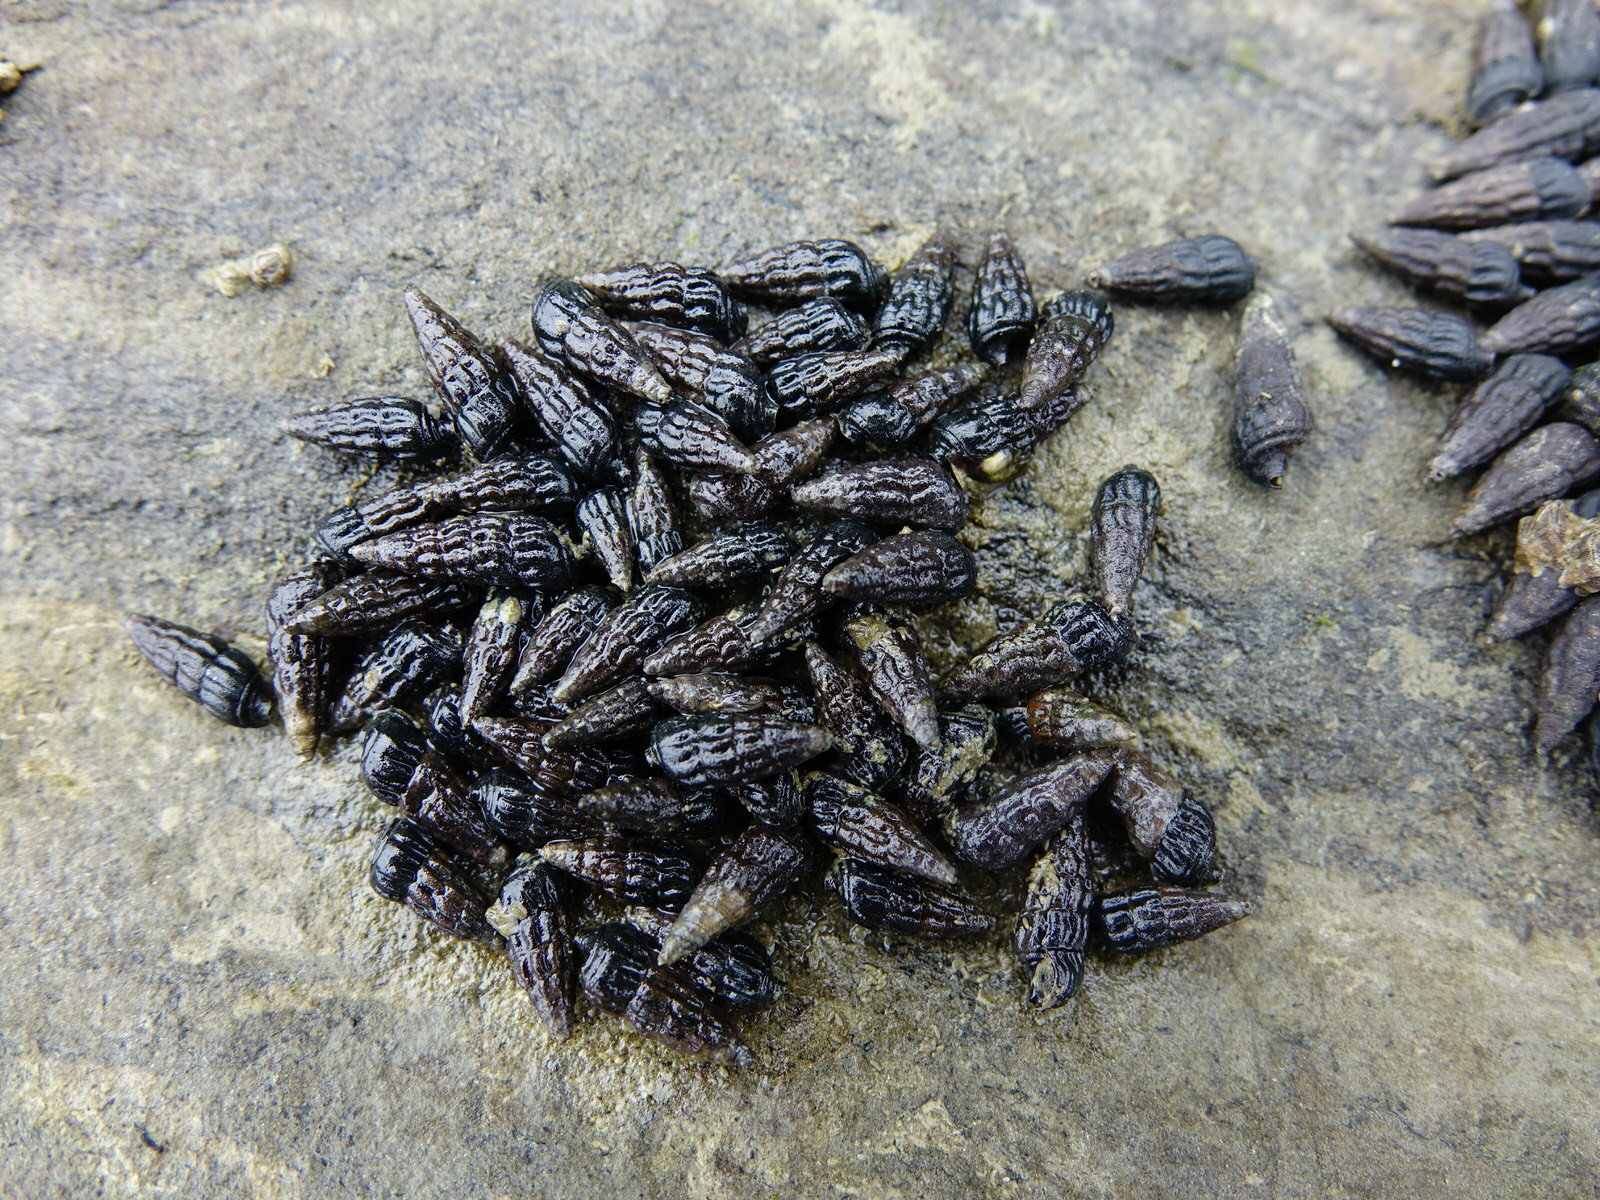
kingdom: Animalia
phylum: Mollusca
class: Gastropoda
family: Batillariidae
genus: Zeacumantus
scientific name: Zeacumantus subcarinatus
